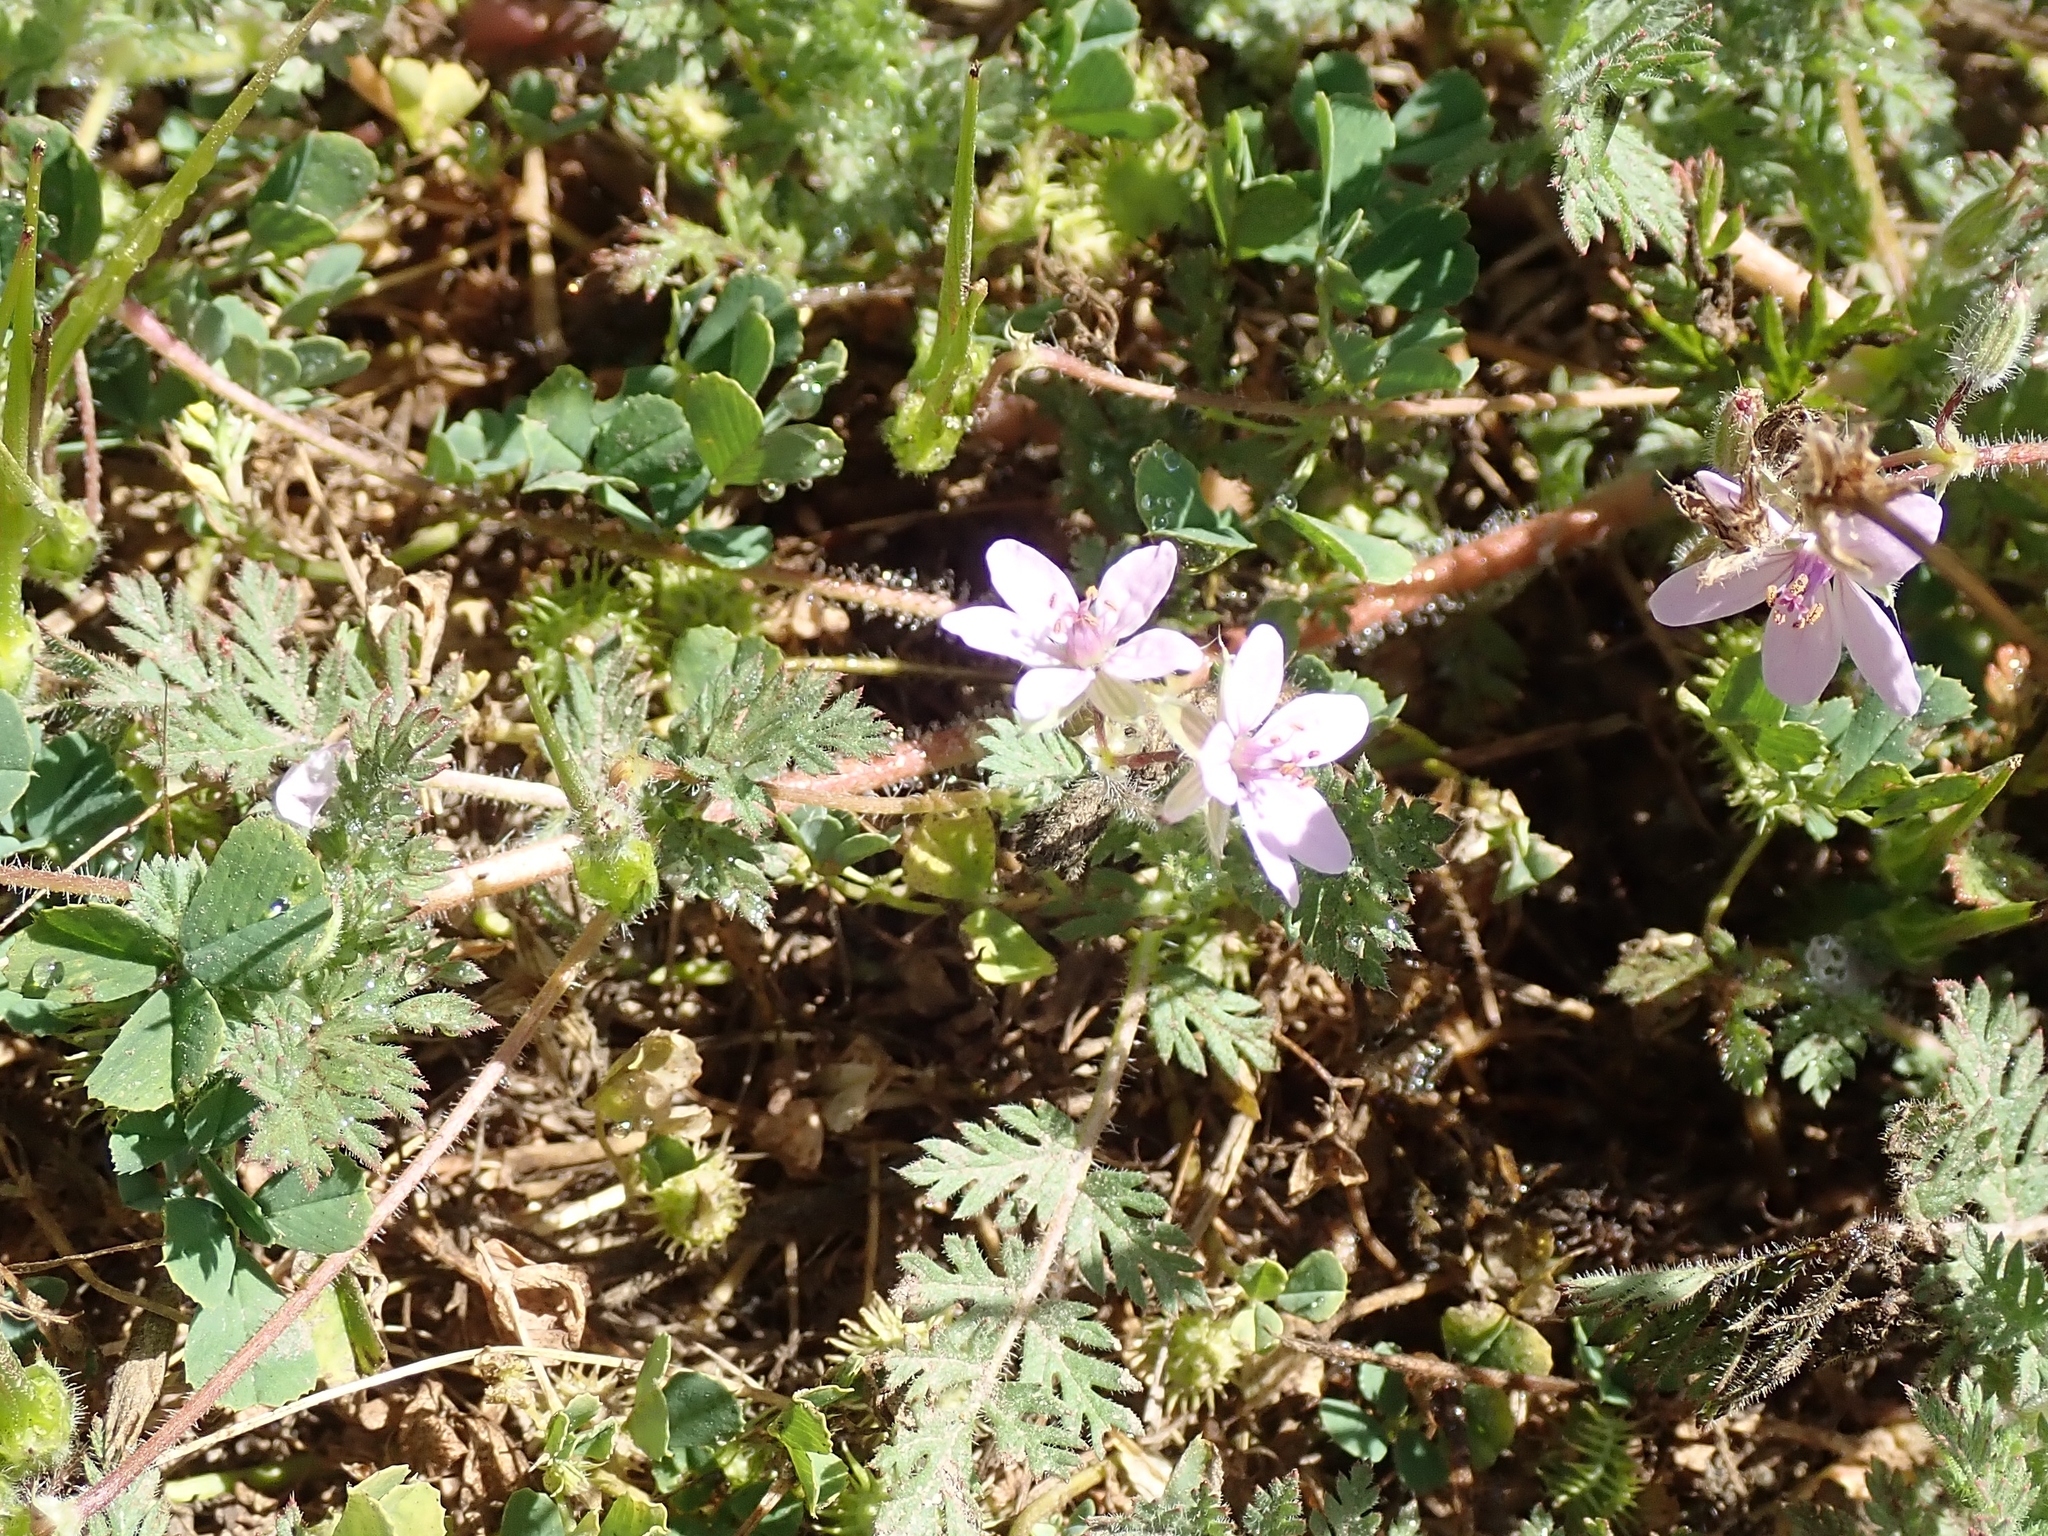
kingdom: Plantae
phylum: Tracheophyta
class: Magnoliopsida
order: Geraniales
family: Geraniaceae
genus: Erodium
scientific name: Erodium cicutarium
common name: Common stork's-bill
